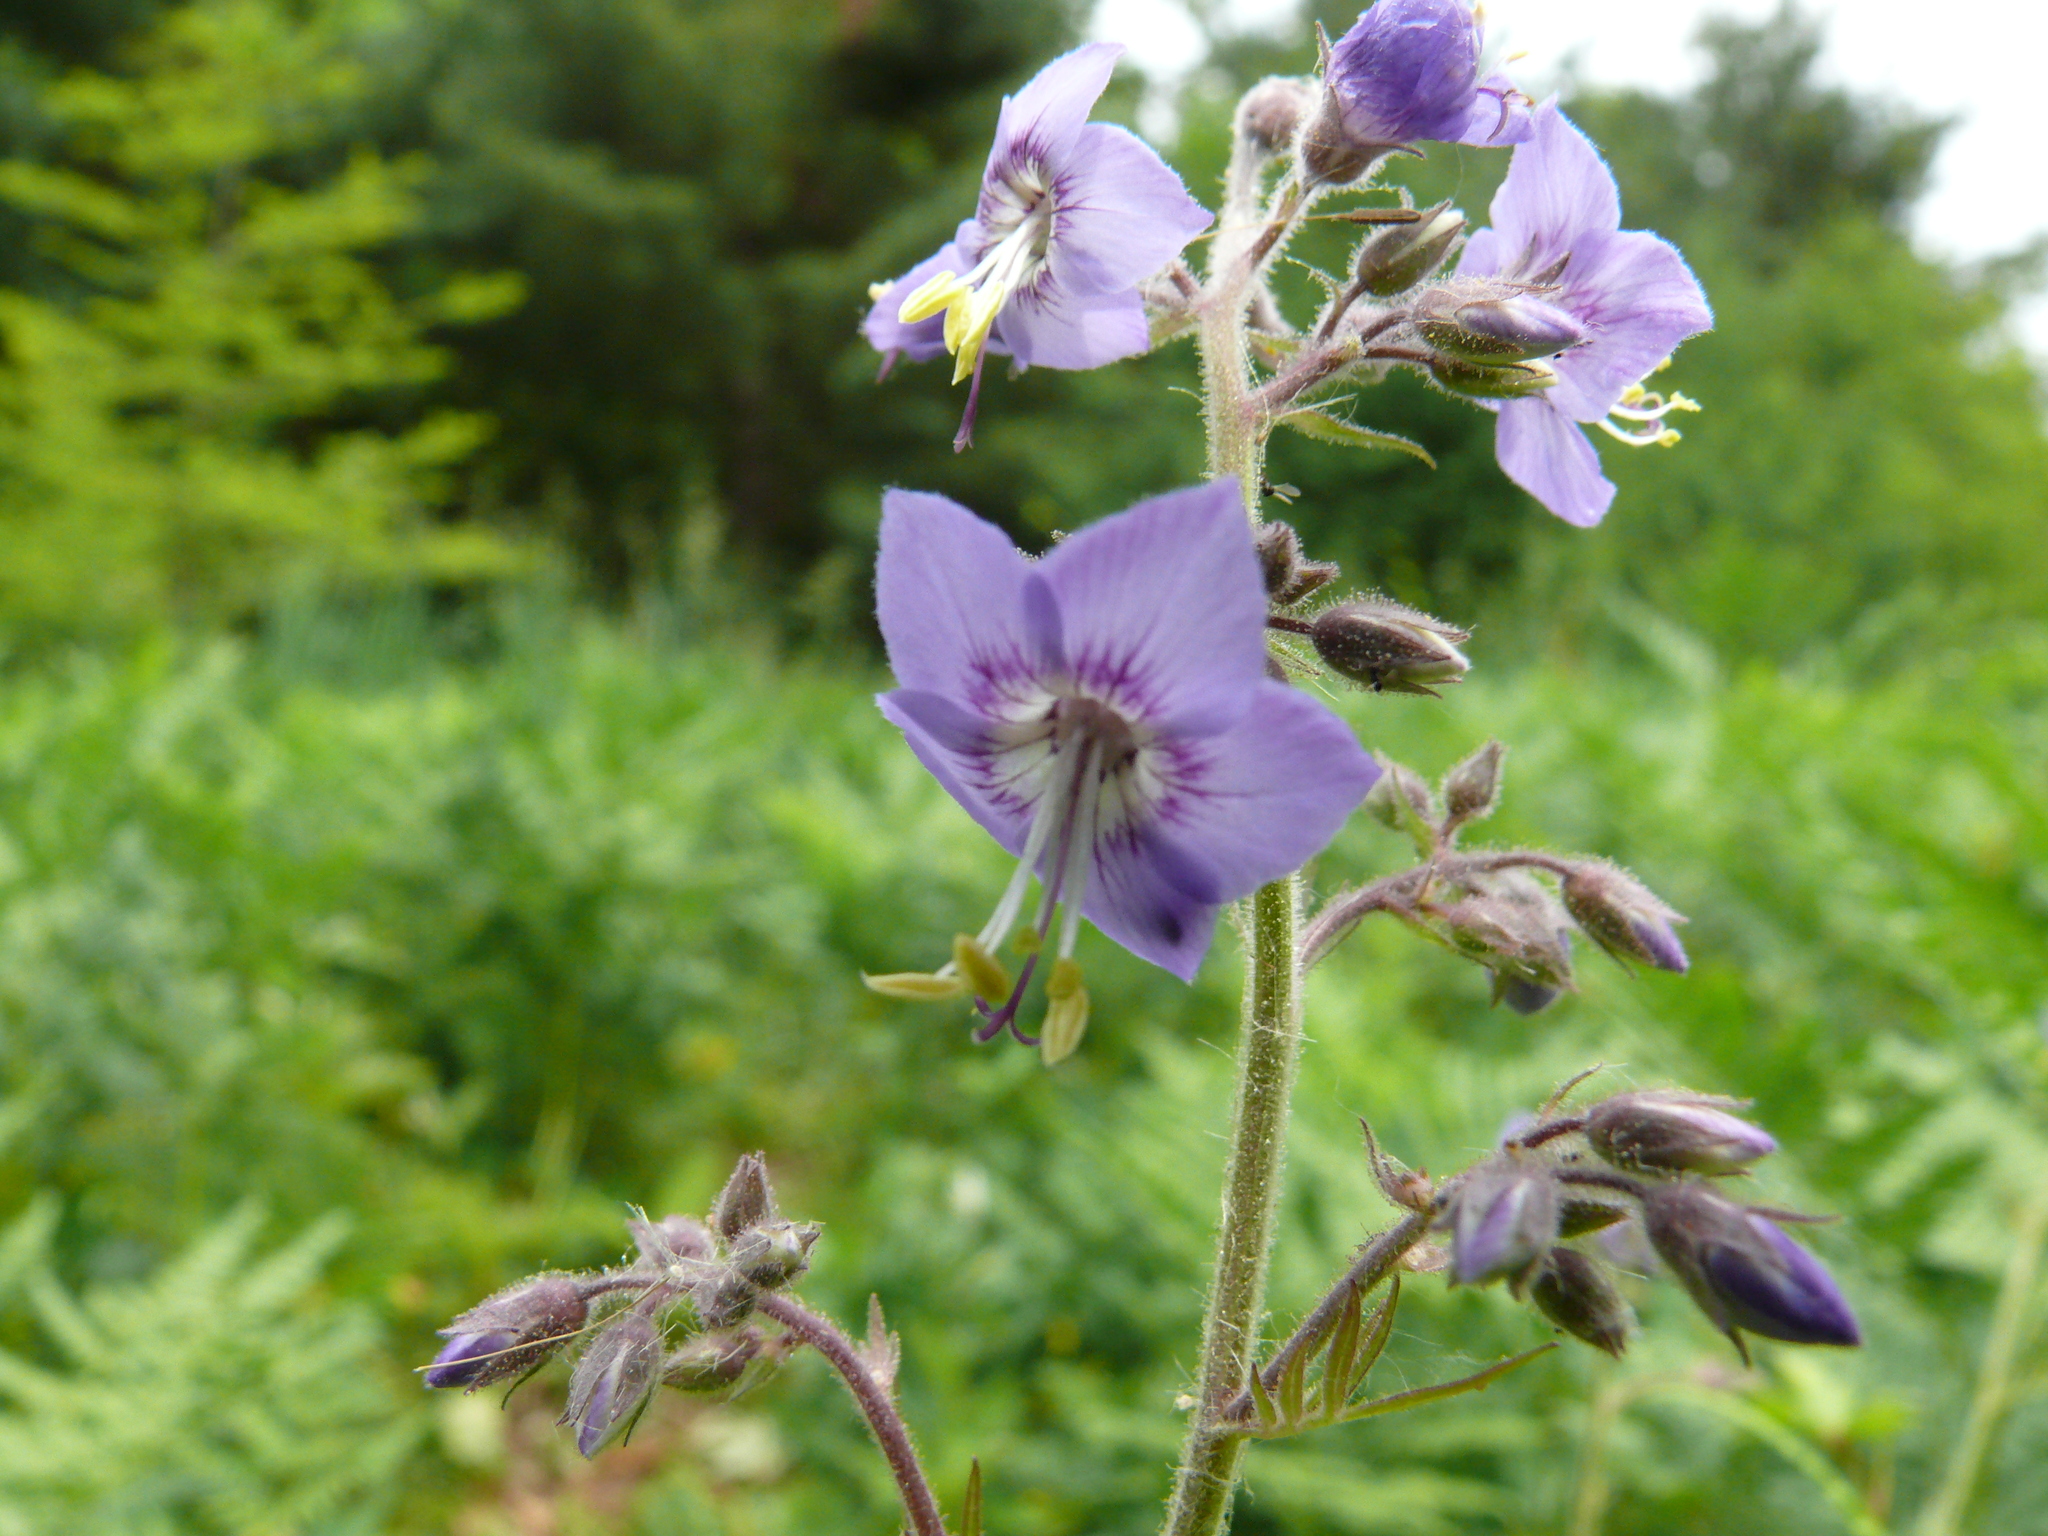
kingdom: Plantae
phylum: Tracheophyta
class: Magnoliopsida
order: Ericales
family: Polemoniaceae
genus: Polemonium
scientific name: Polemonium acutiflorum
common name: Tall jacob's-ladder
